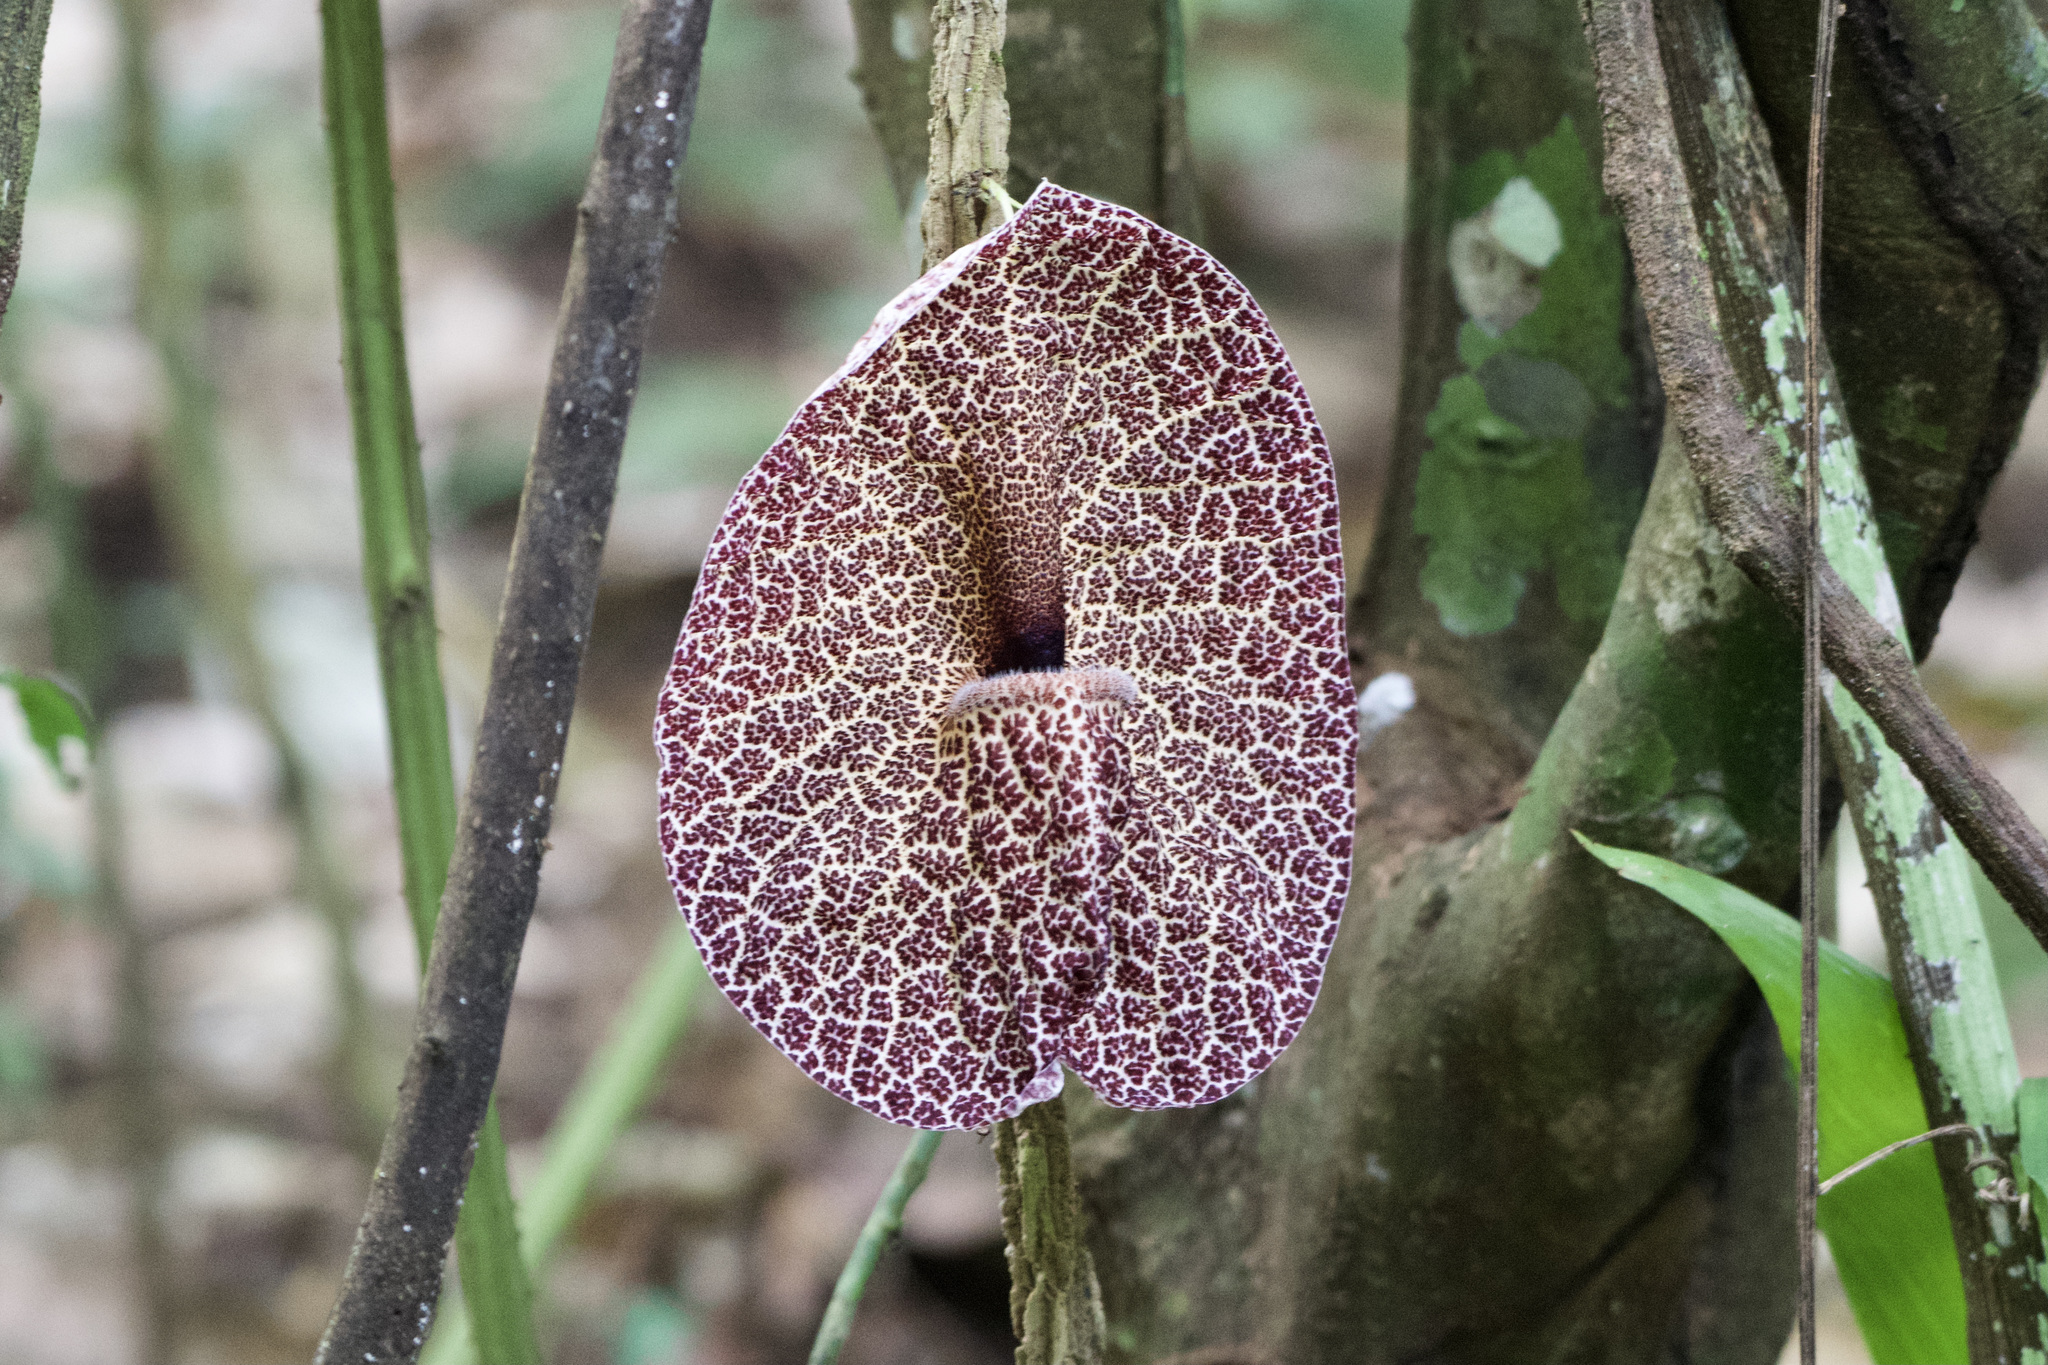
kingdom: Plantae
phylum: Tracheophyta
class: Magnoliopsida
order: Piperales
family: Aristolochiaceae
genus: Aristolochia
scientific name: Aristolochia cordiflora
